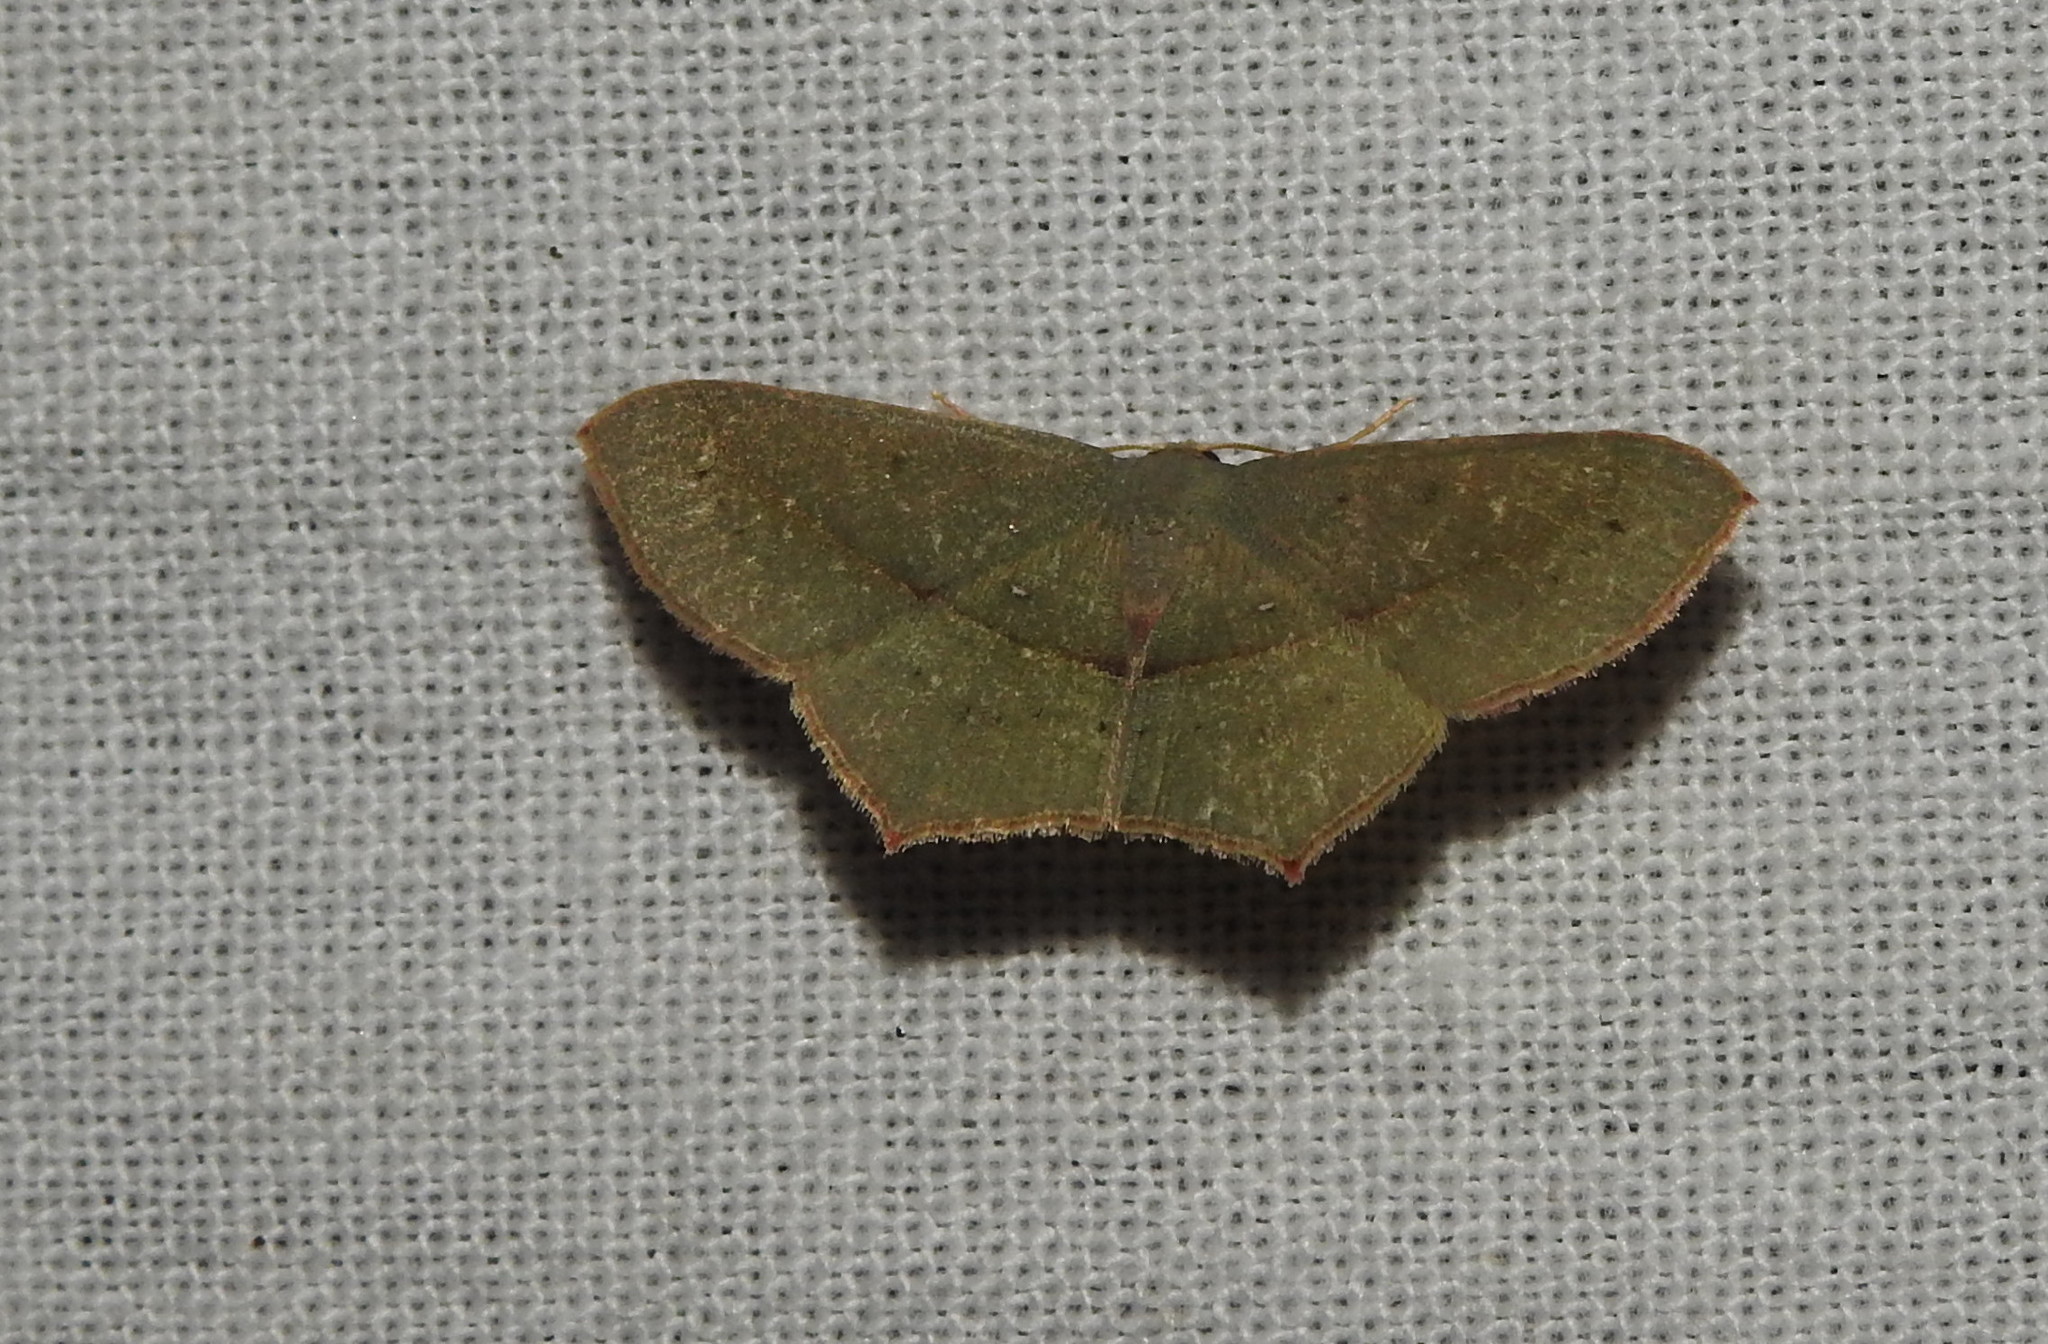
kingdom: Animalia
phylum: Arthropoda
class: Insecta
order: Lepidoptera
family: Geometridae
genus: Traminda
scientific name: Traminda mundissima
